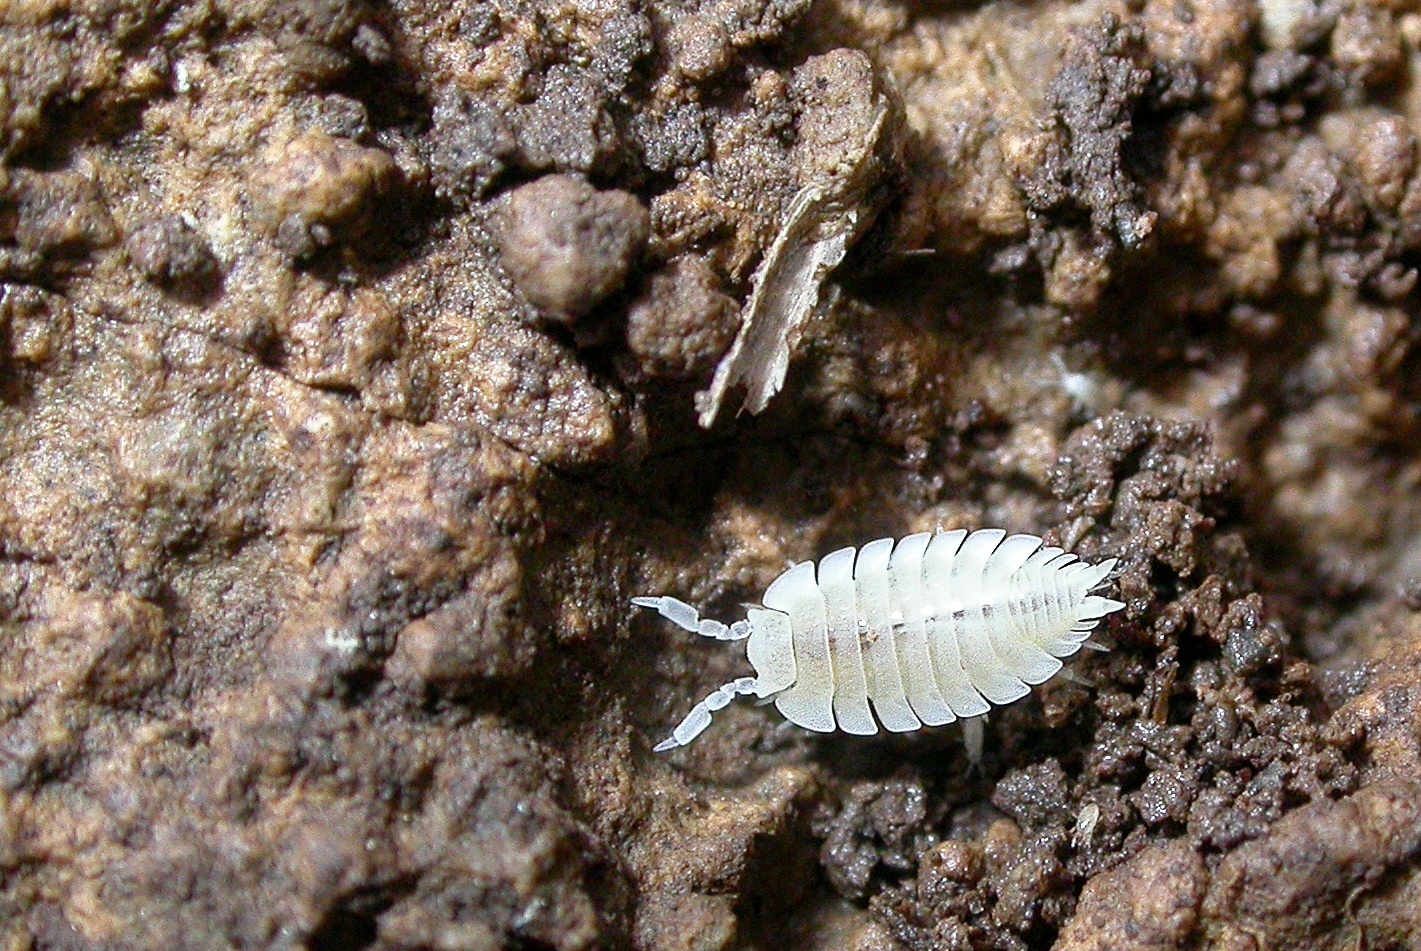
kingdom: Animalia
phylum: Arthropoda
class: Malacostraca
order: Isopoda
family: Platyarthridae
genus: Platyarthrus
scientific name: Platyarthrus hoffmannseggii
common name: Ant woodlouse
